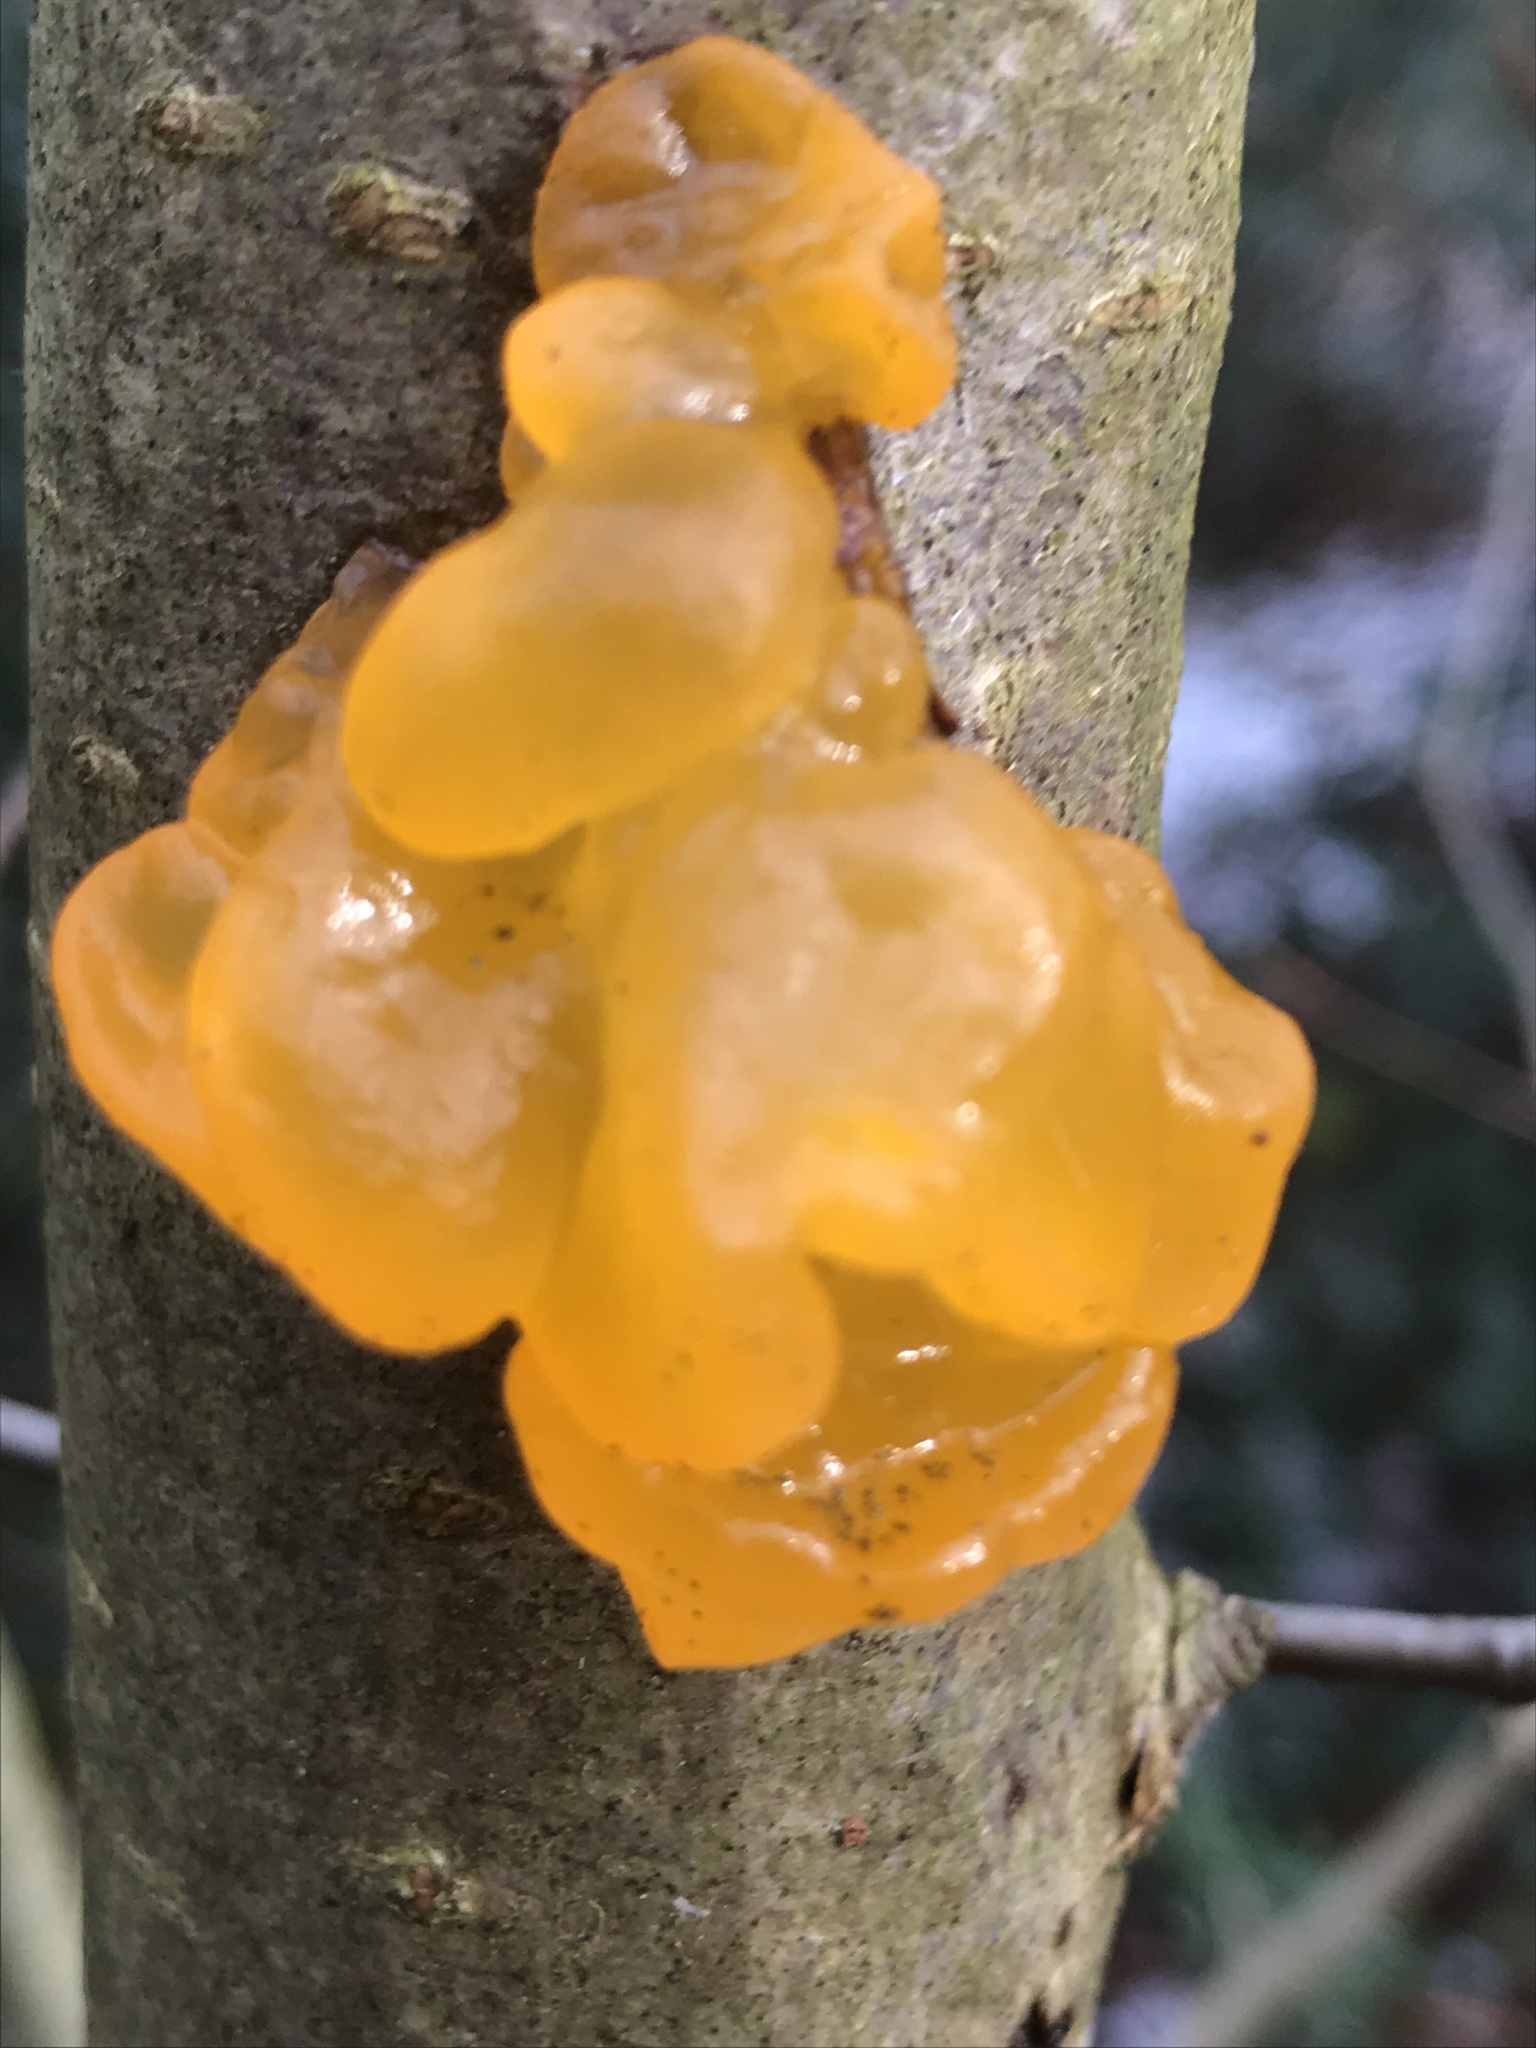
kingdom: Fungi
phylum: Basidiomycota
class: Tremellomycetes
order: Tremellales
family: Tremellaceae
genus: Tremella
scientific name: Tremella mesenterica
